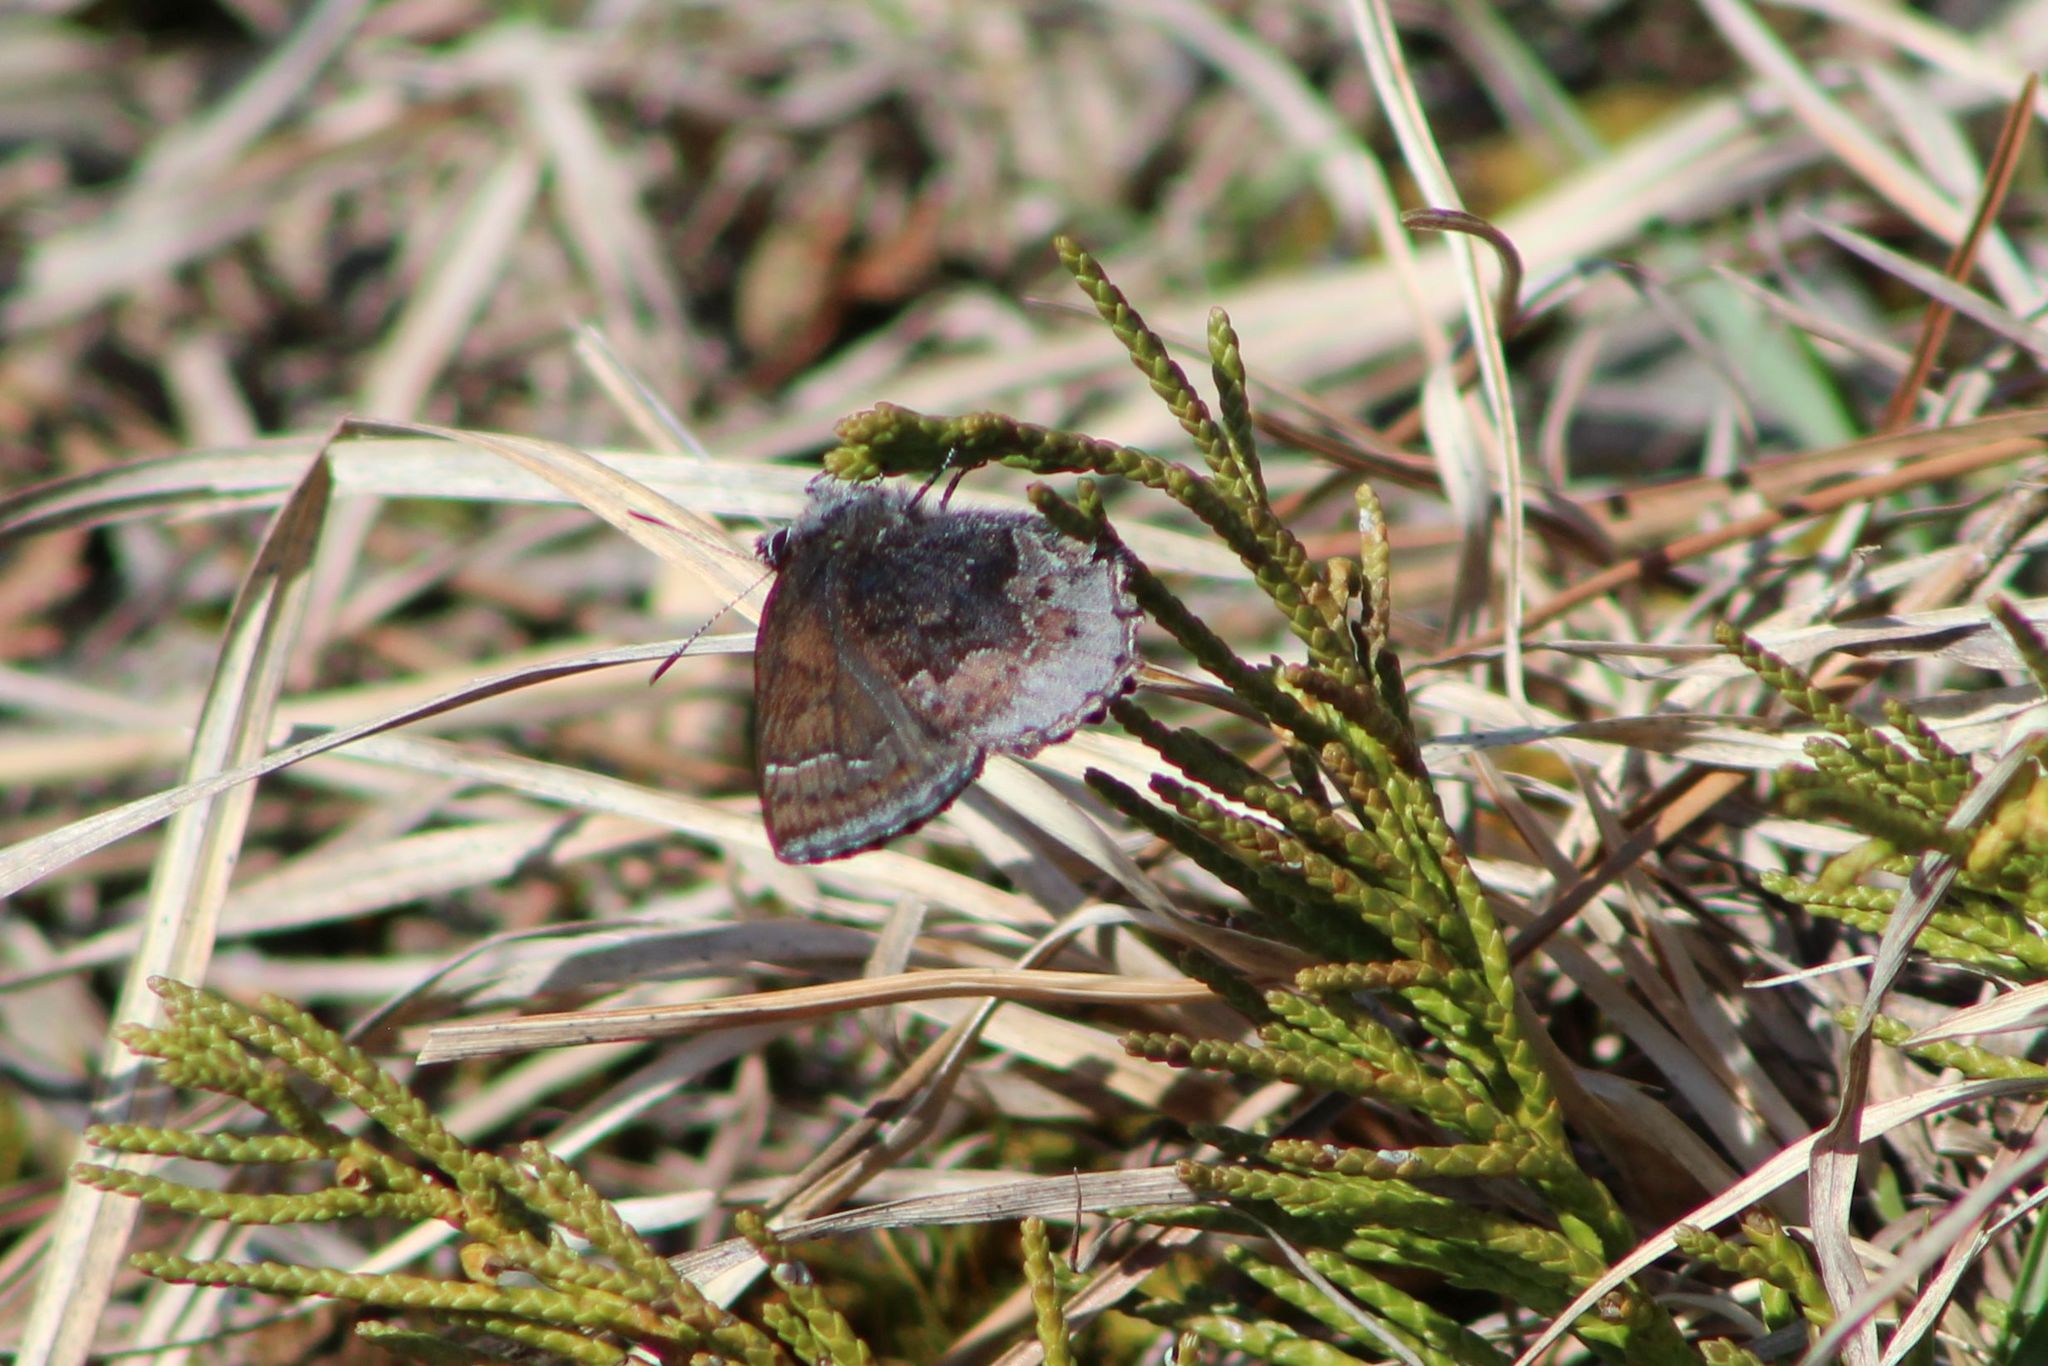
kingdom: Animalia
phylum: Arthropoda
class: Insecta
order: Lepidoptera
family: Lycaenidae
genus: Callophrys
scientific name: Callophrys polios
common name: Hoary elfin
